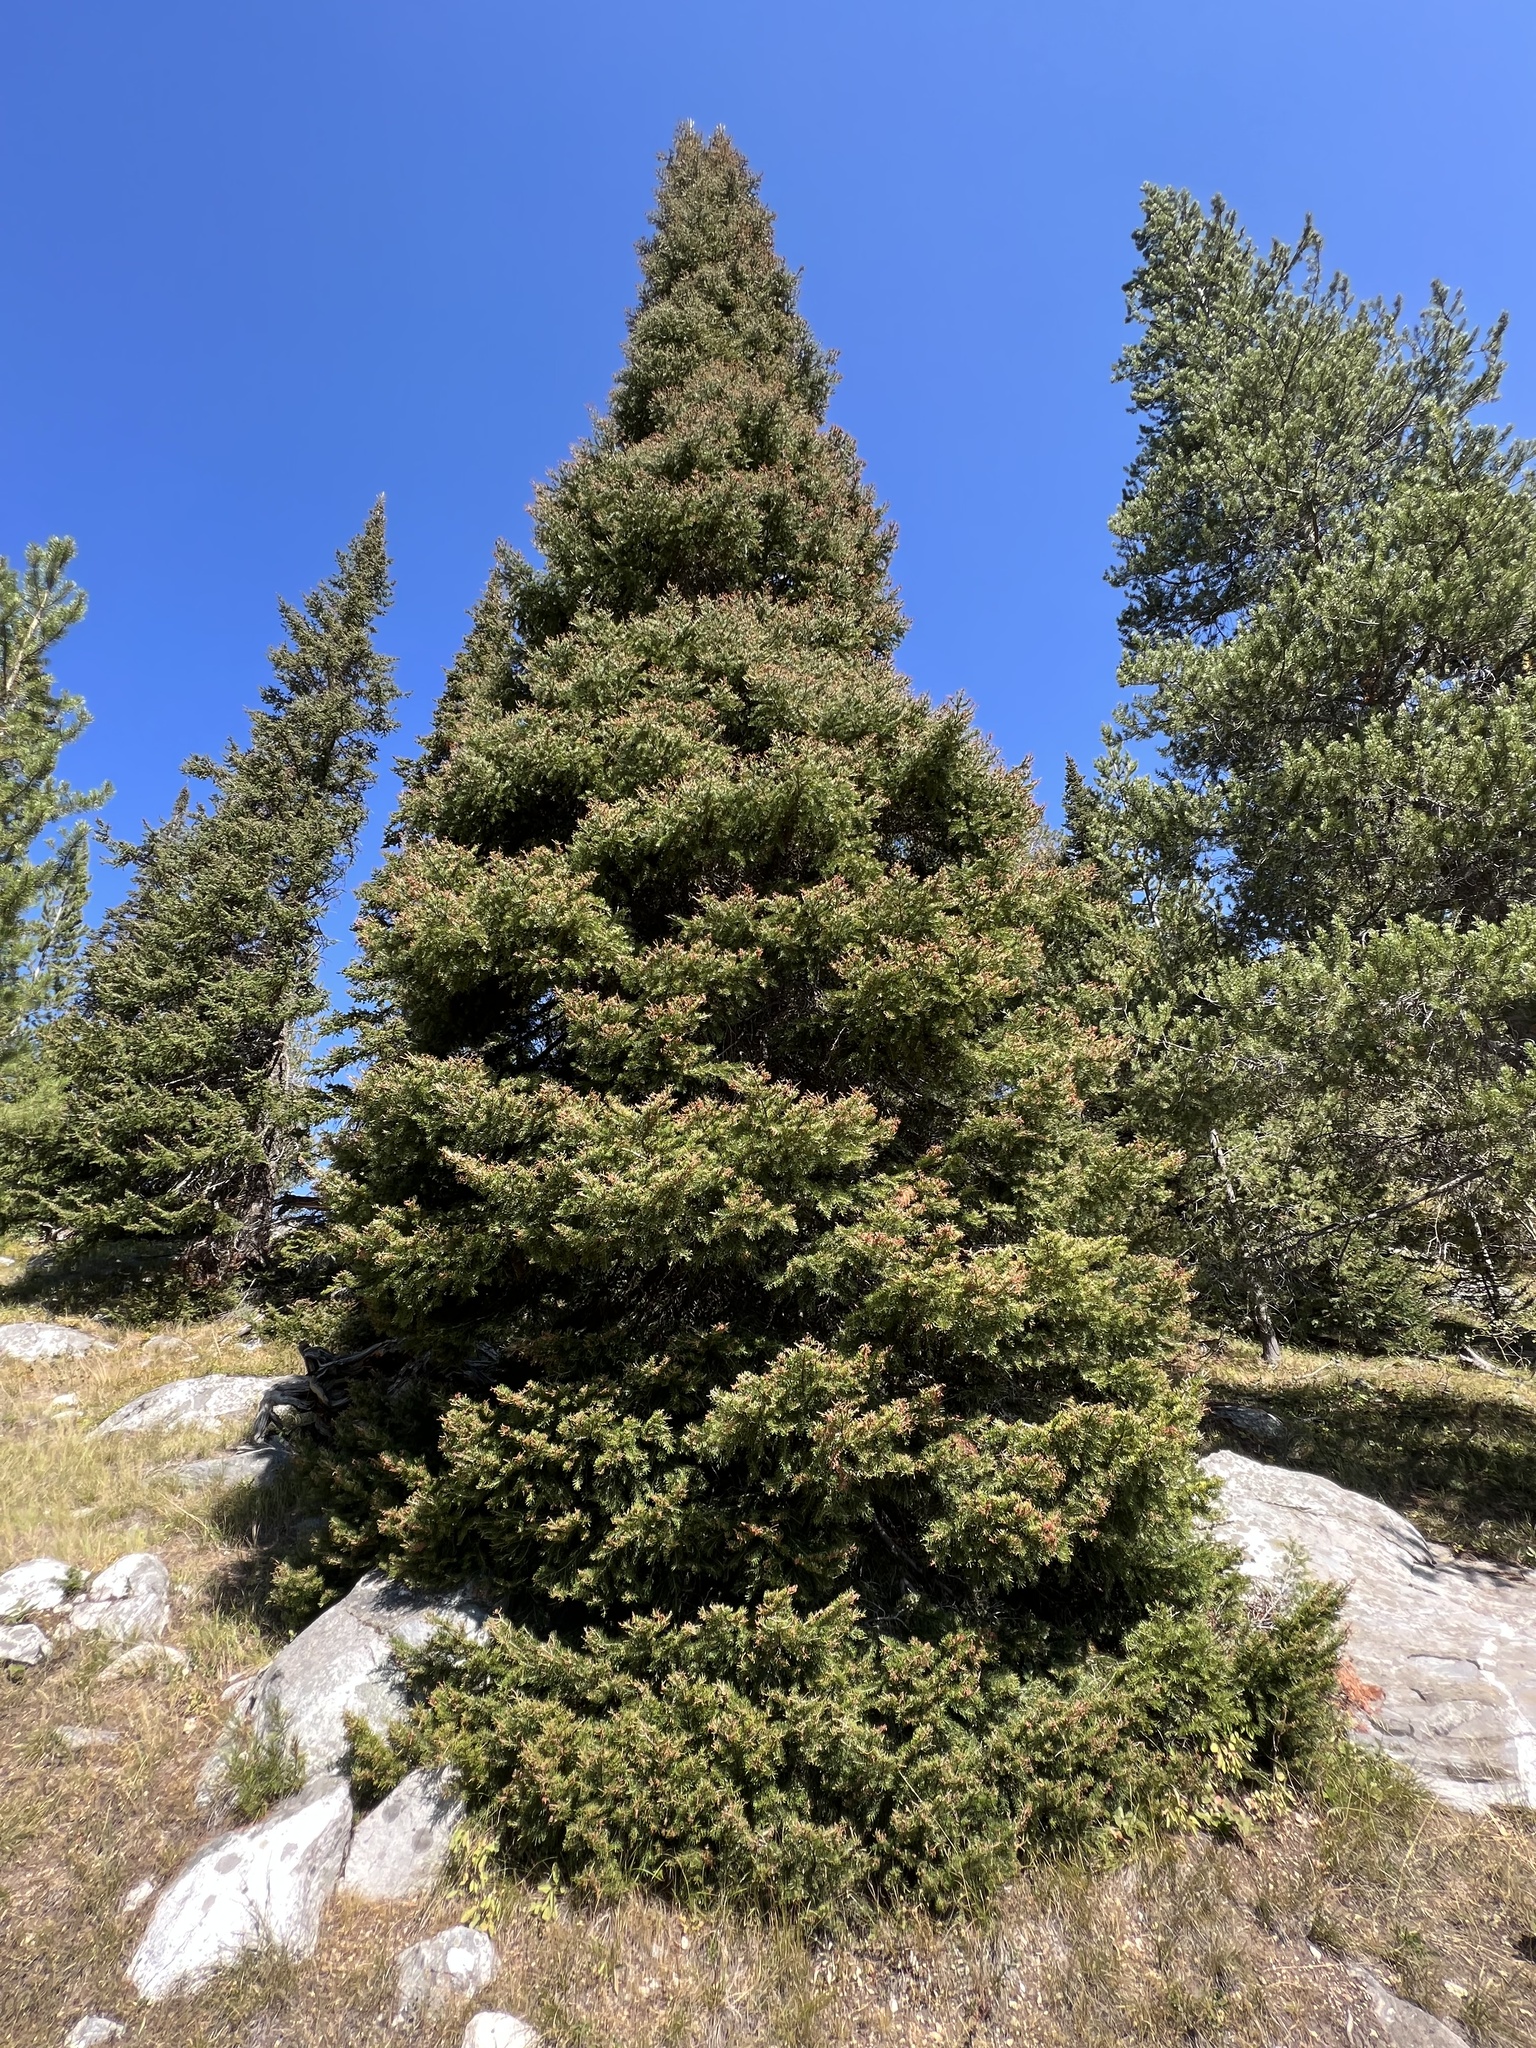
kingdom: Plantae
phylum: Tracheophyta
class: Pinopsida
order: Pinales
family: Pinaceae
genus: Abies
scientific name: Abies lasiocarpa
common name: Subalpine fir
